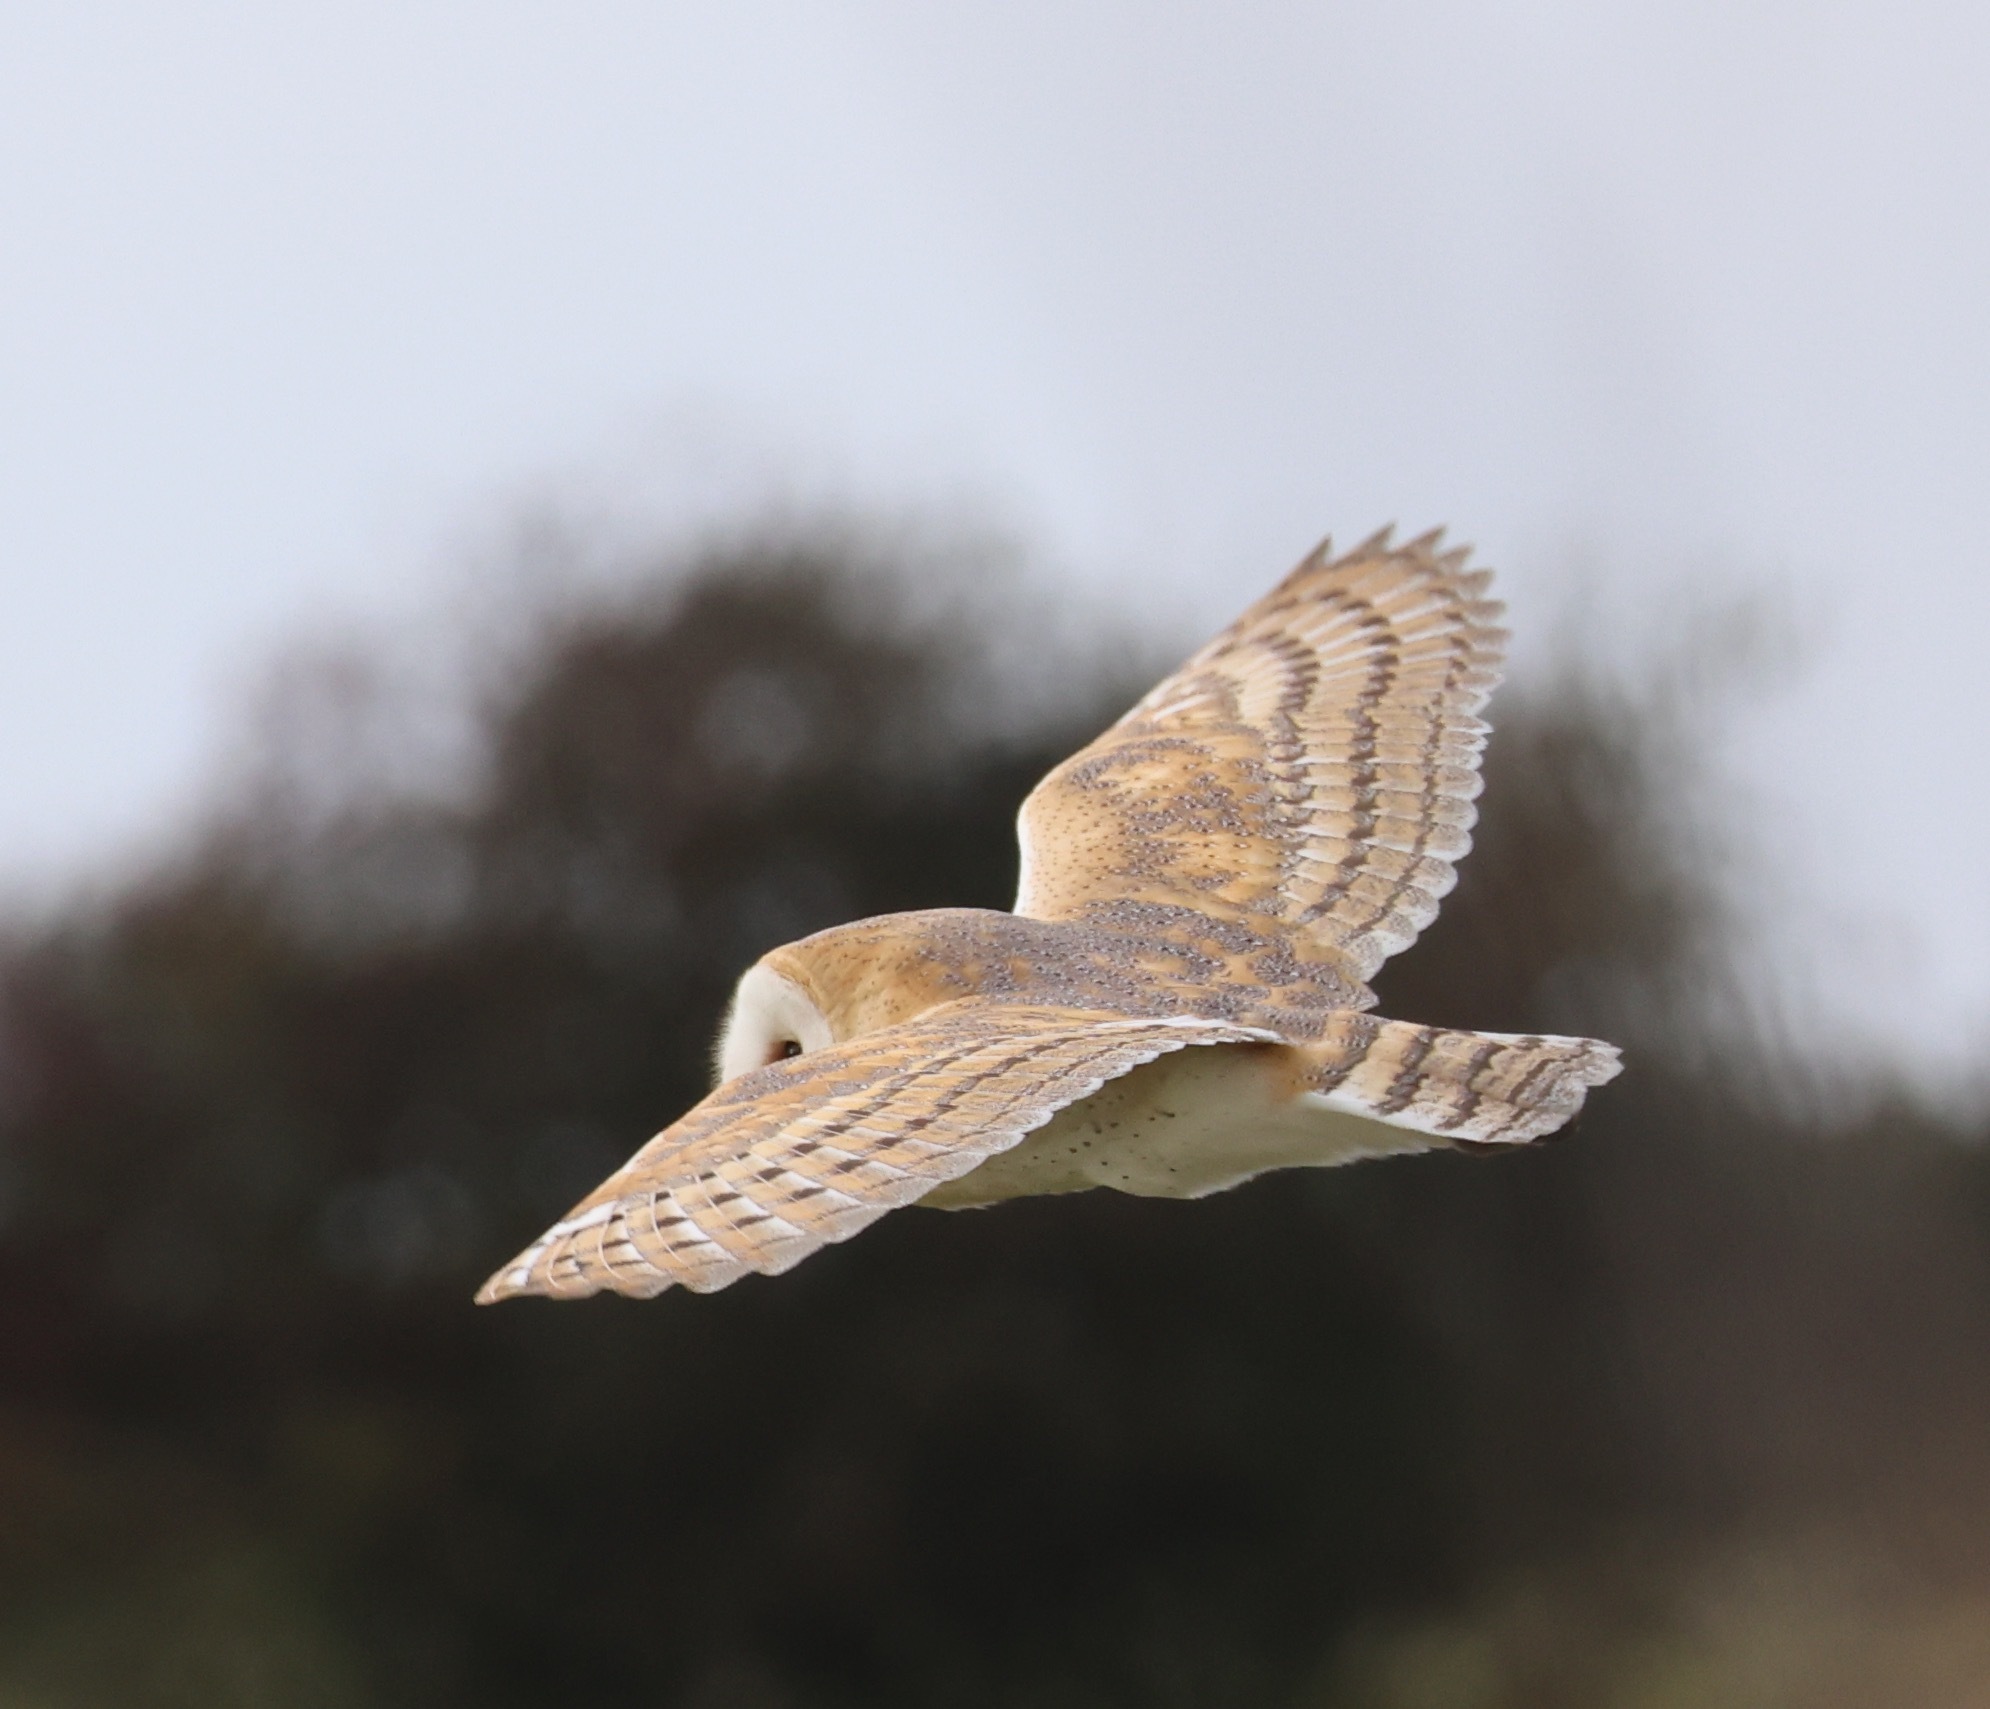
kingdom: Animalia
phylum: Chordata
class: Aves
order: Strigiformes
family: Tytonidae
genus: Tyto
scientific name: Tyto alba
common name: Barn owl
